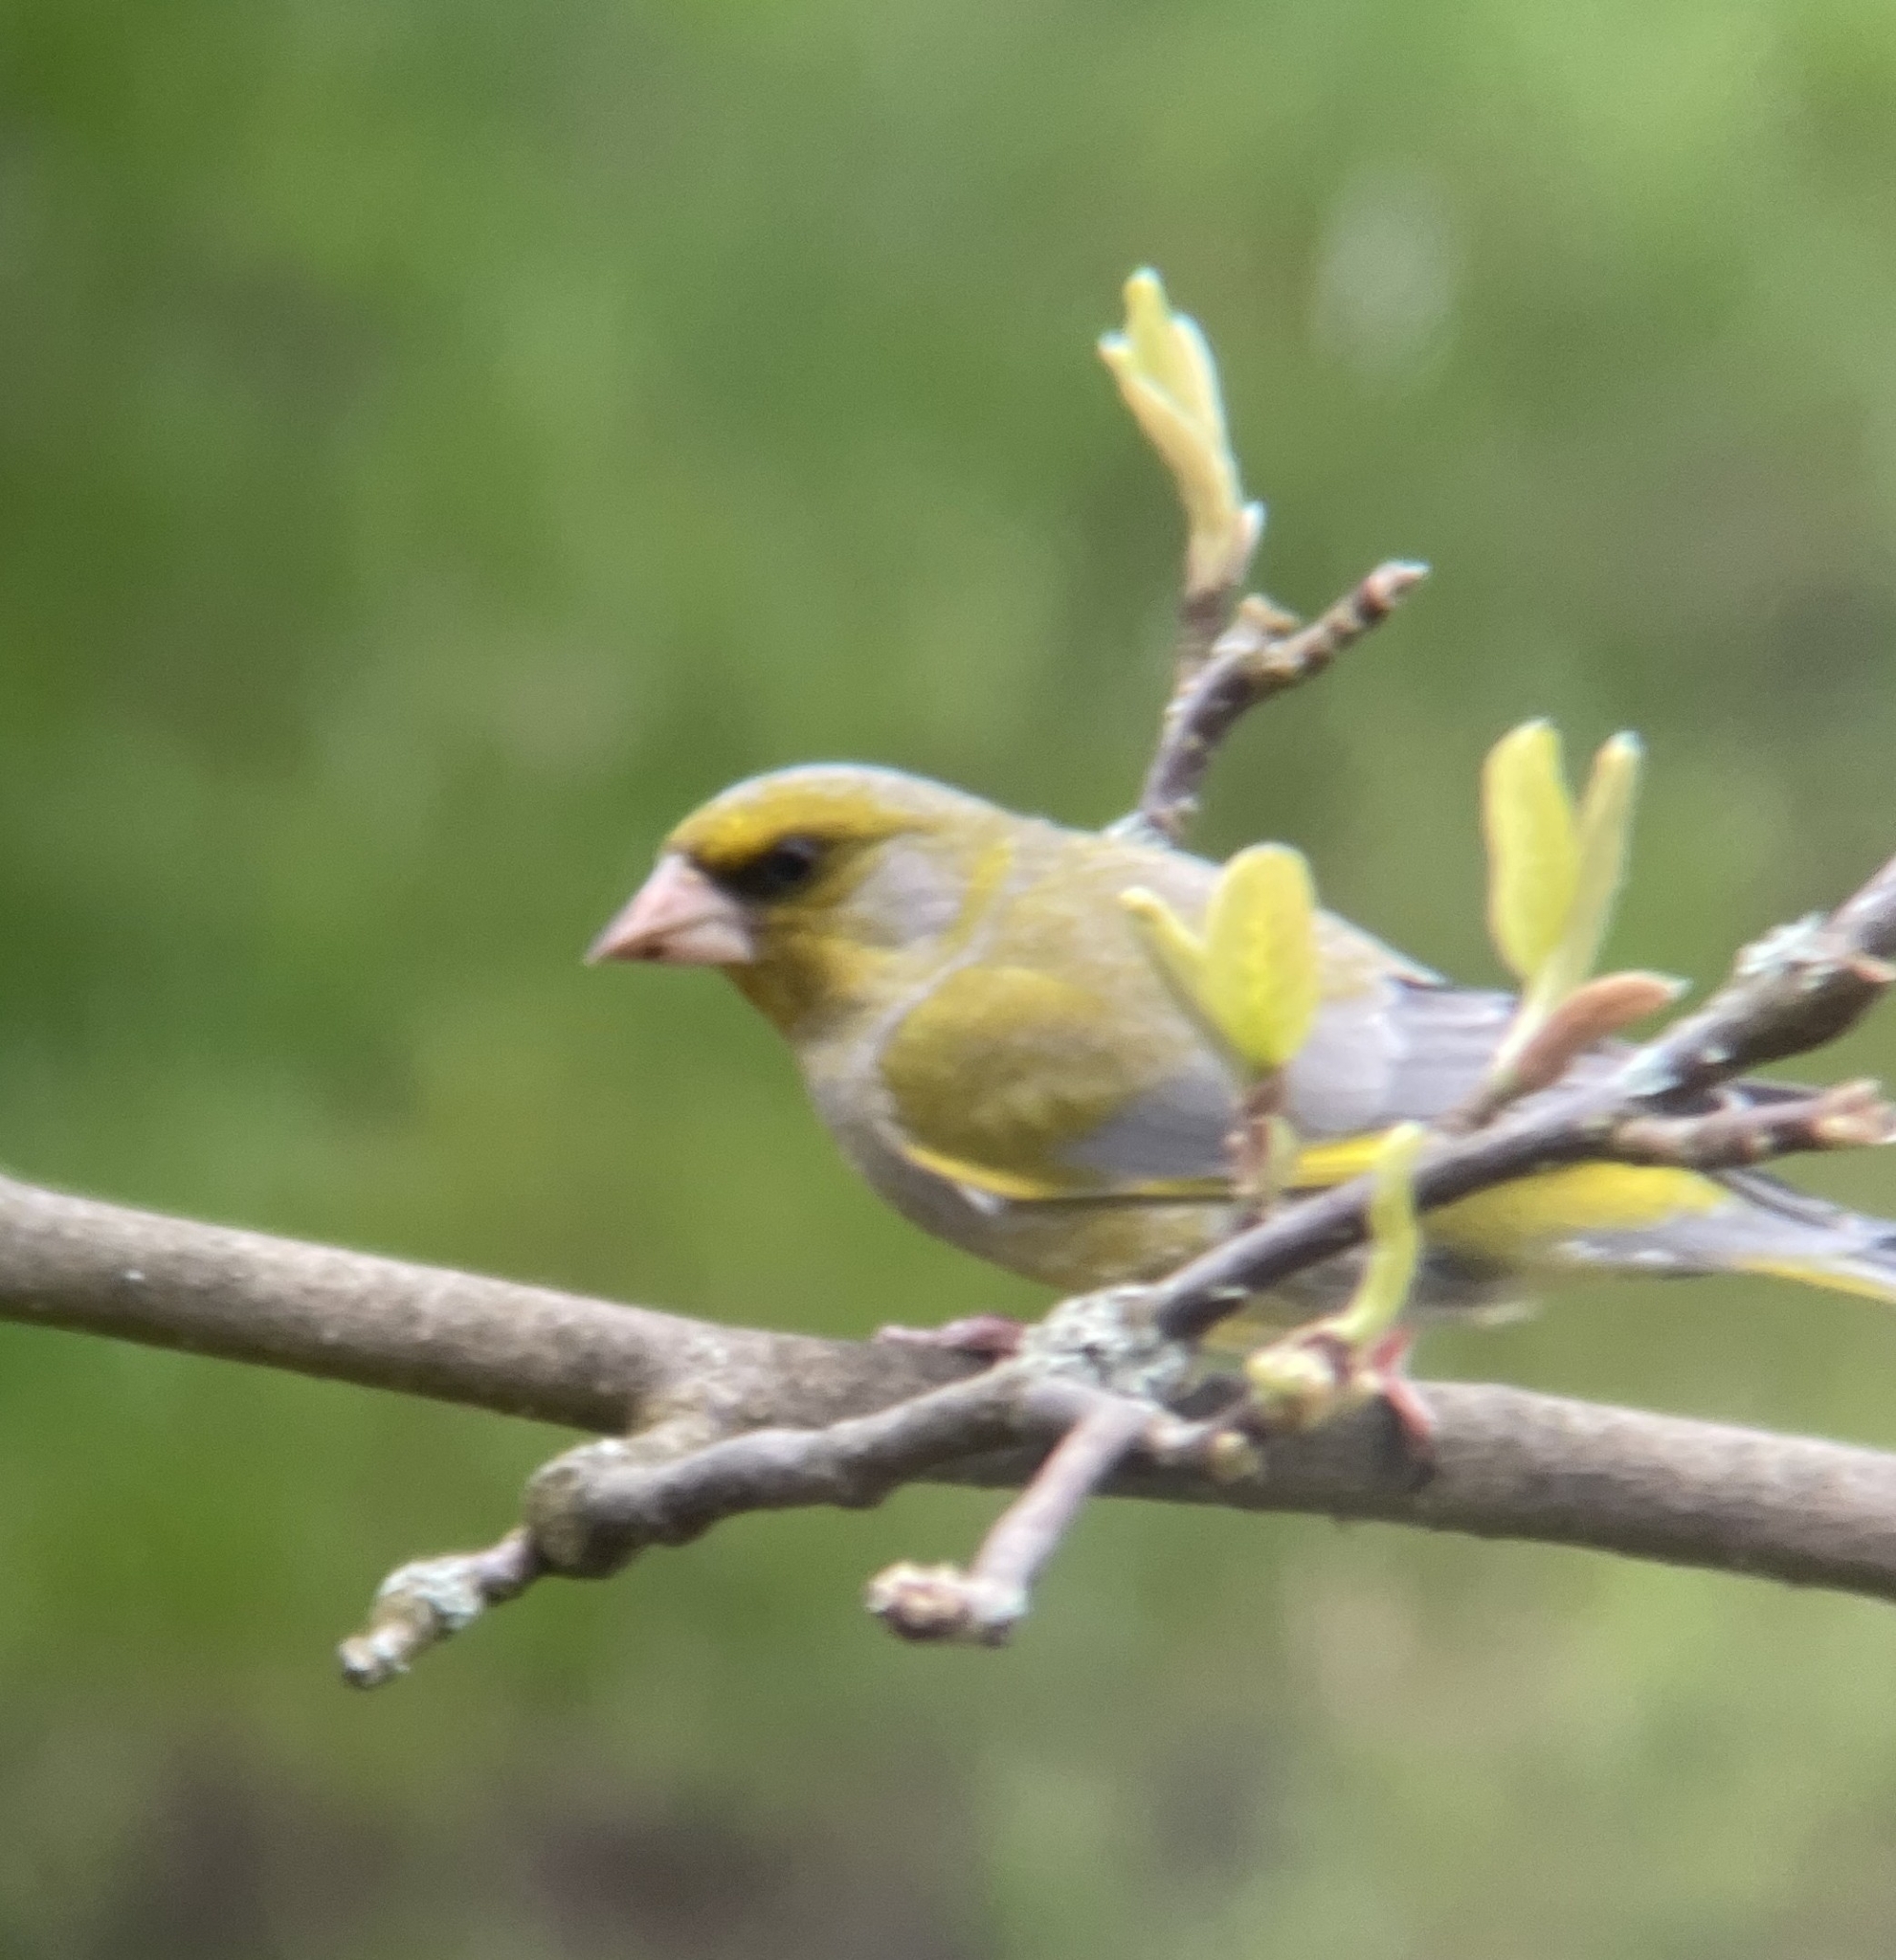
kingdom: Plantae
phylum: Tracheophyta
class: Liliopsida
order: Poales
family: Poaceae
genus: Chloris
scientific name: Chloris chloris
